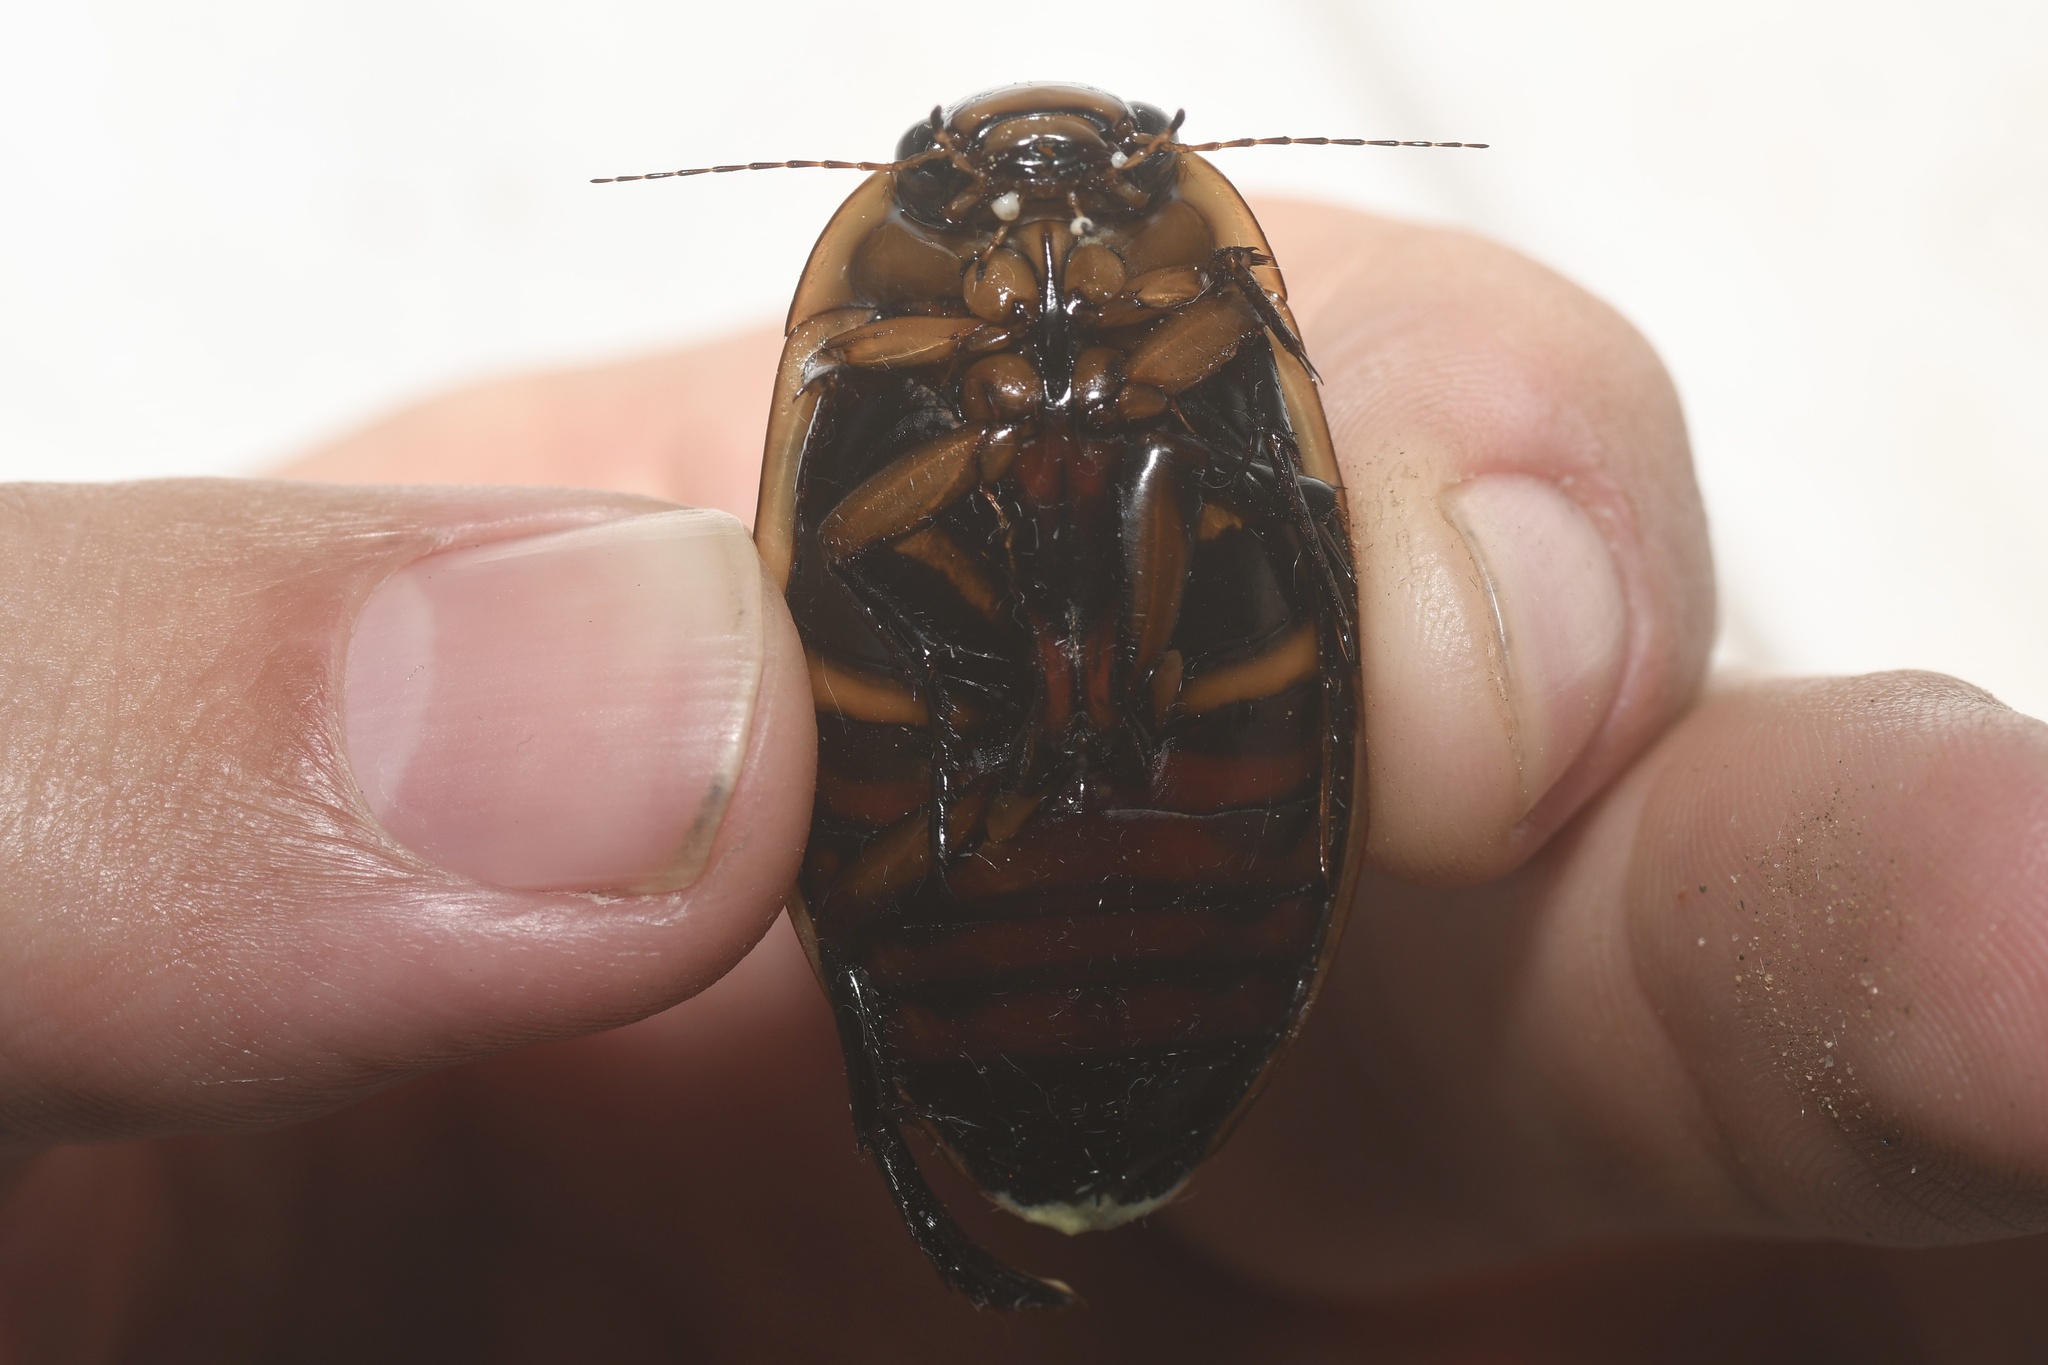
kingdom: Animalia
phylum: Arthropoda
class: Insecta
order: Coleoptera
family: Dytiscidae
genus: Dytiscus
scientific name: Dytiscus harrisii
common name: Harris's diving beetle
